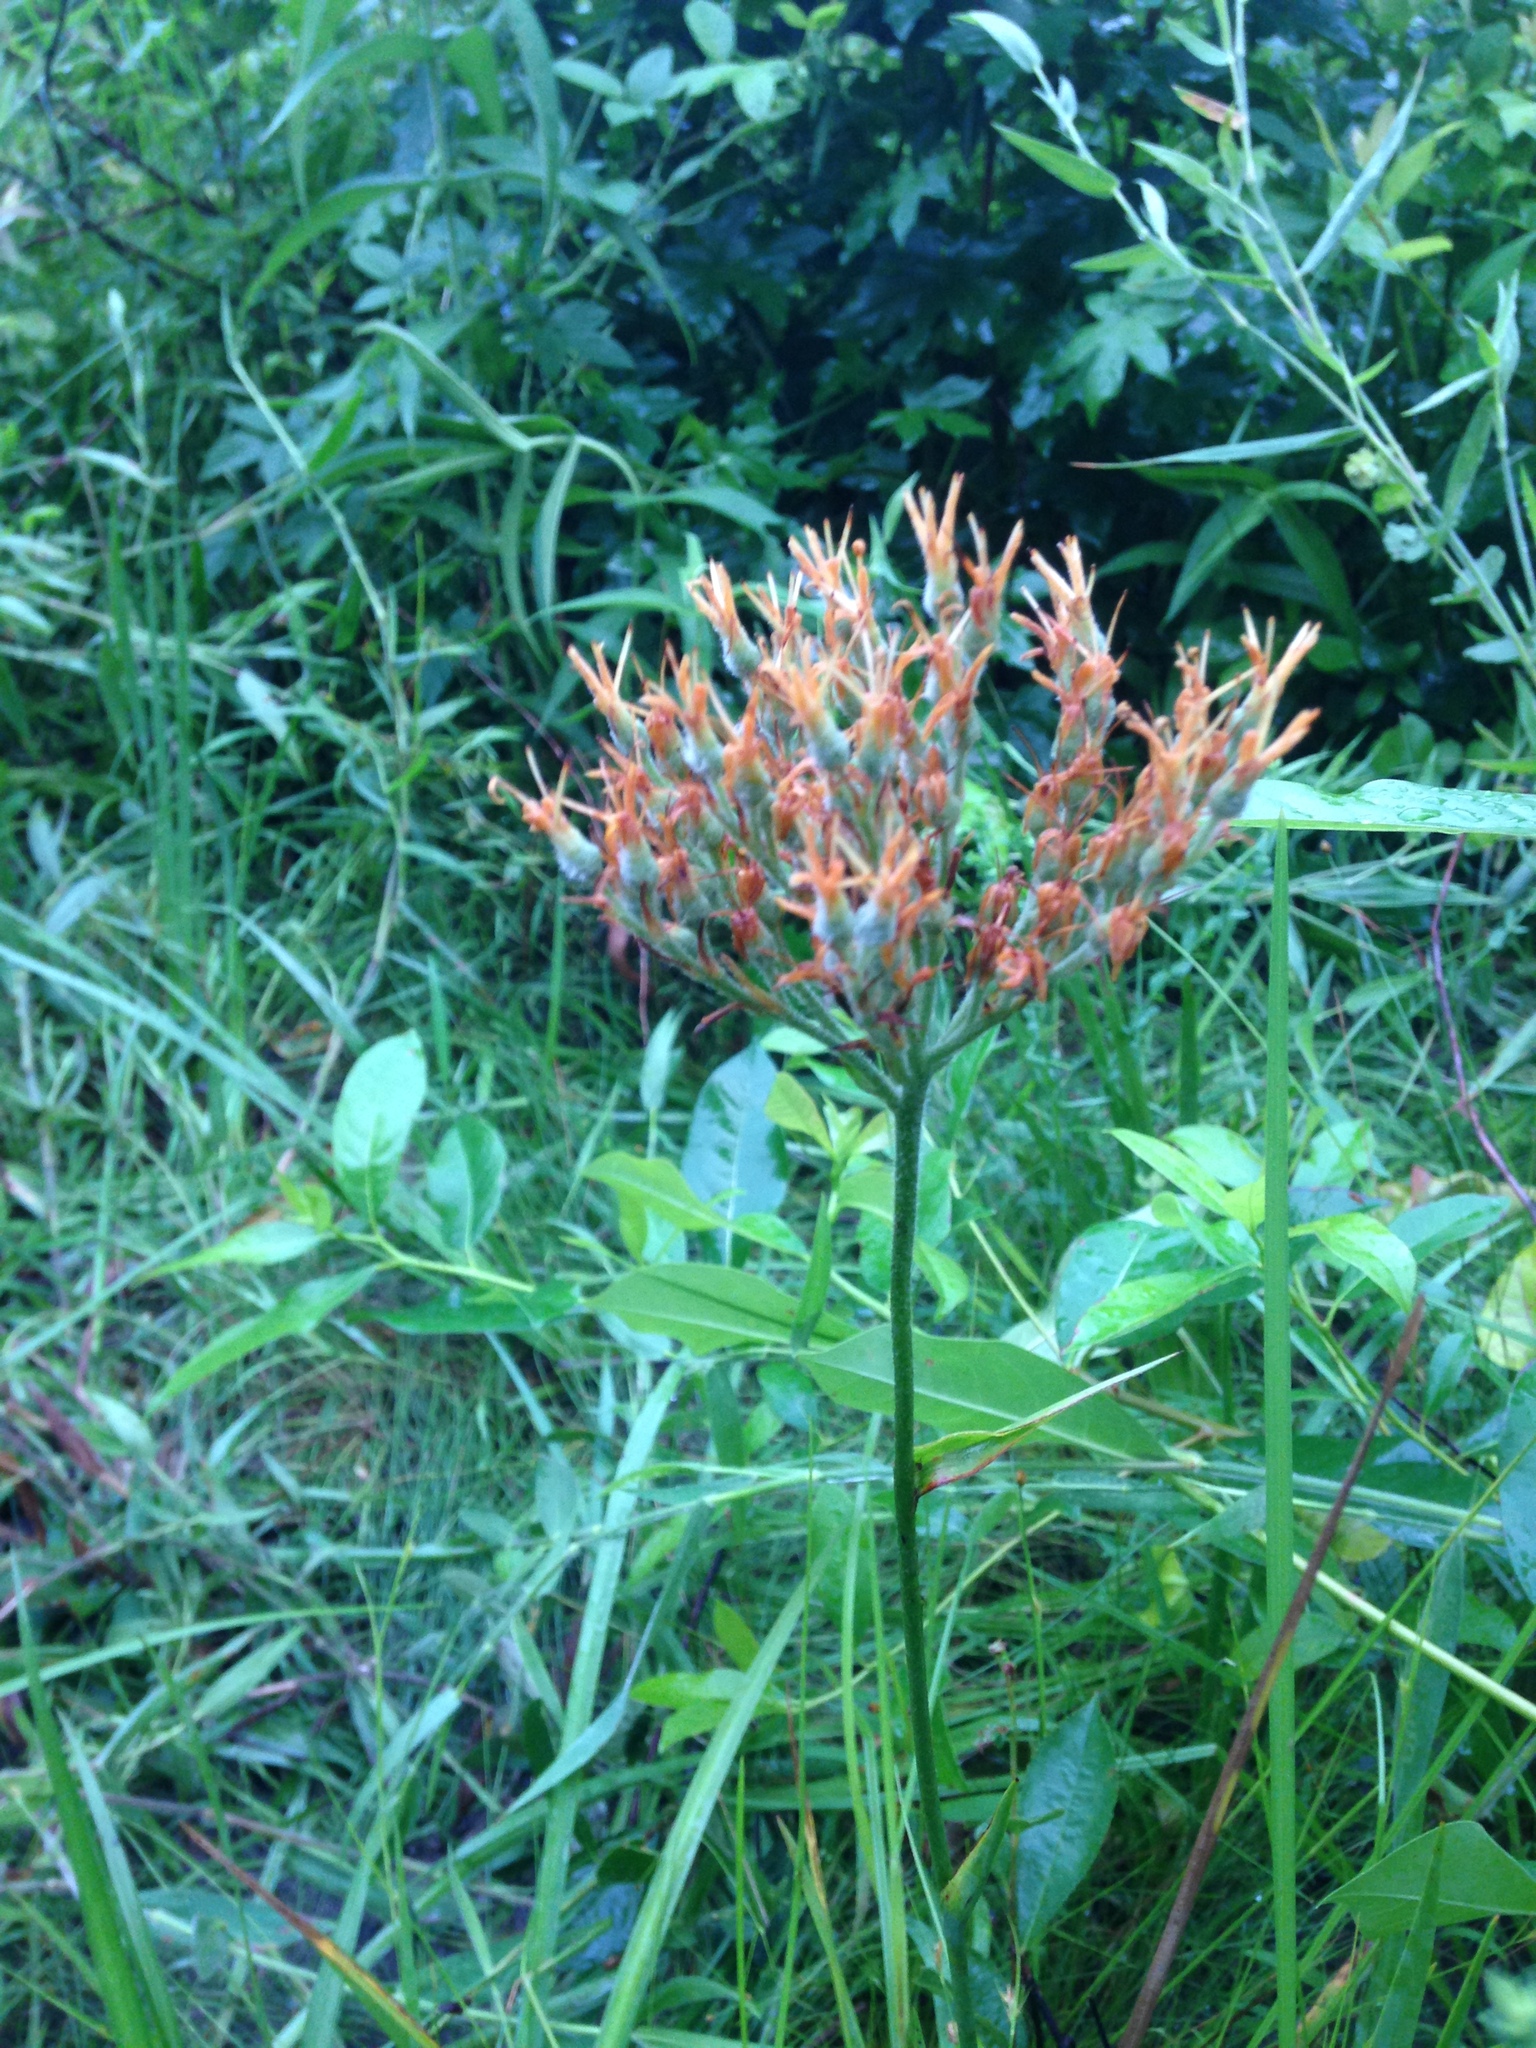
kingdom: Plantae
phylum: Tracheophyta
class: Liliopsida
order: Commelinales
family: Haemodoraceae
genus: Lachnanthes
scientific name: Lachnanthes caroliana
